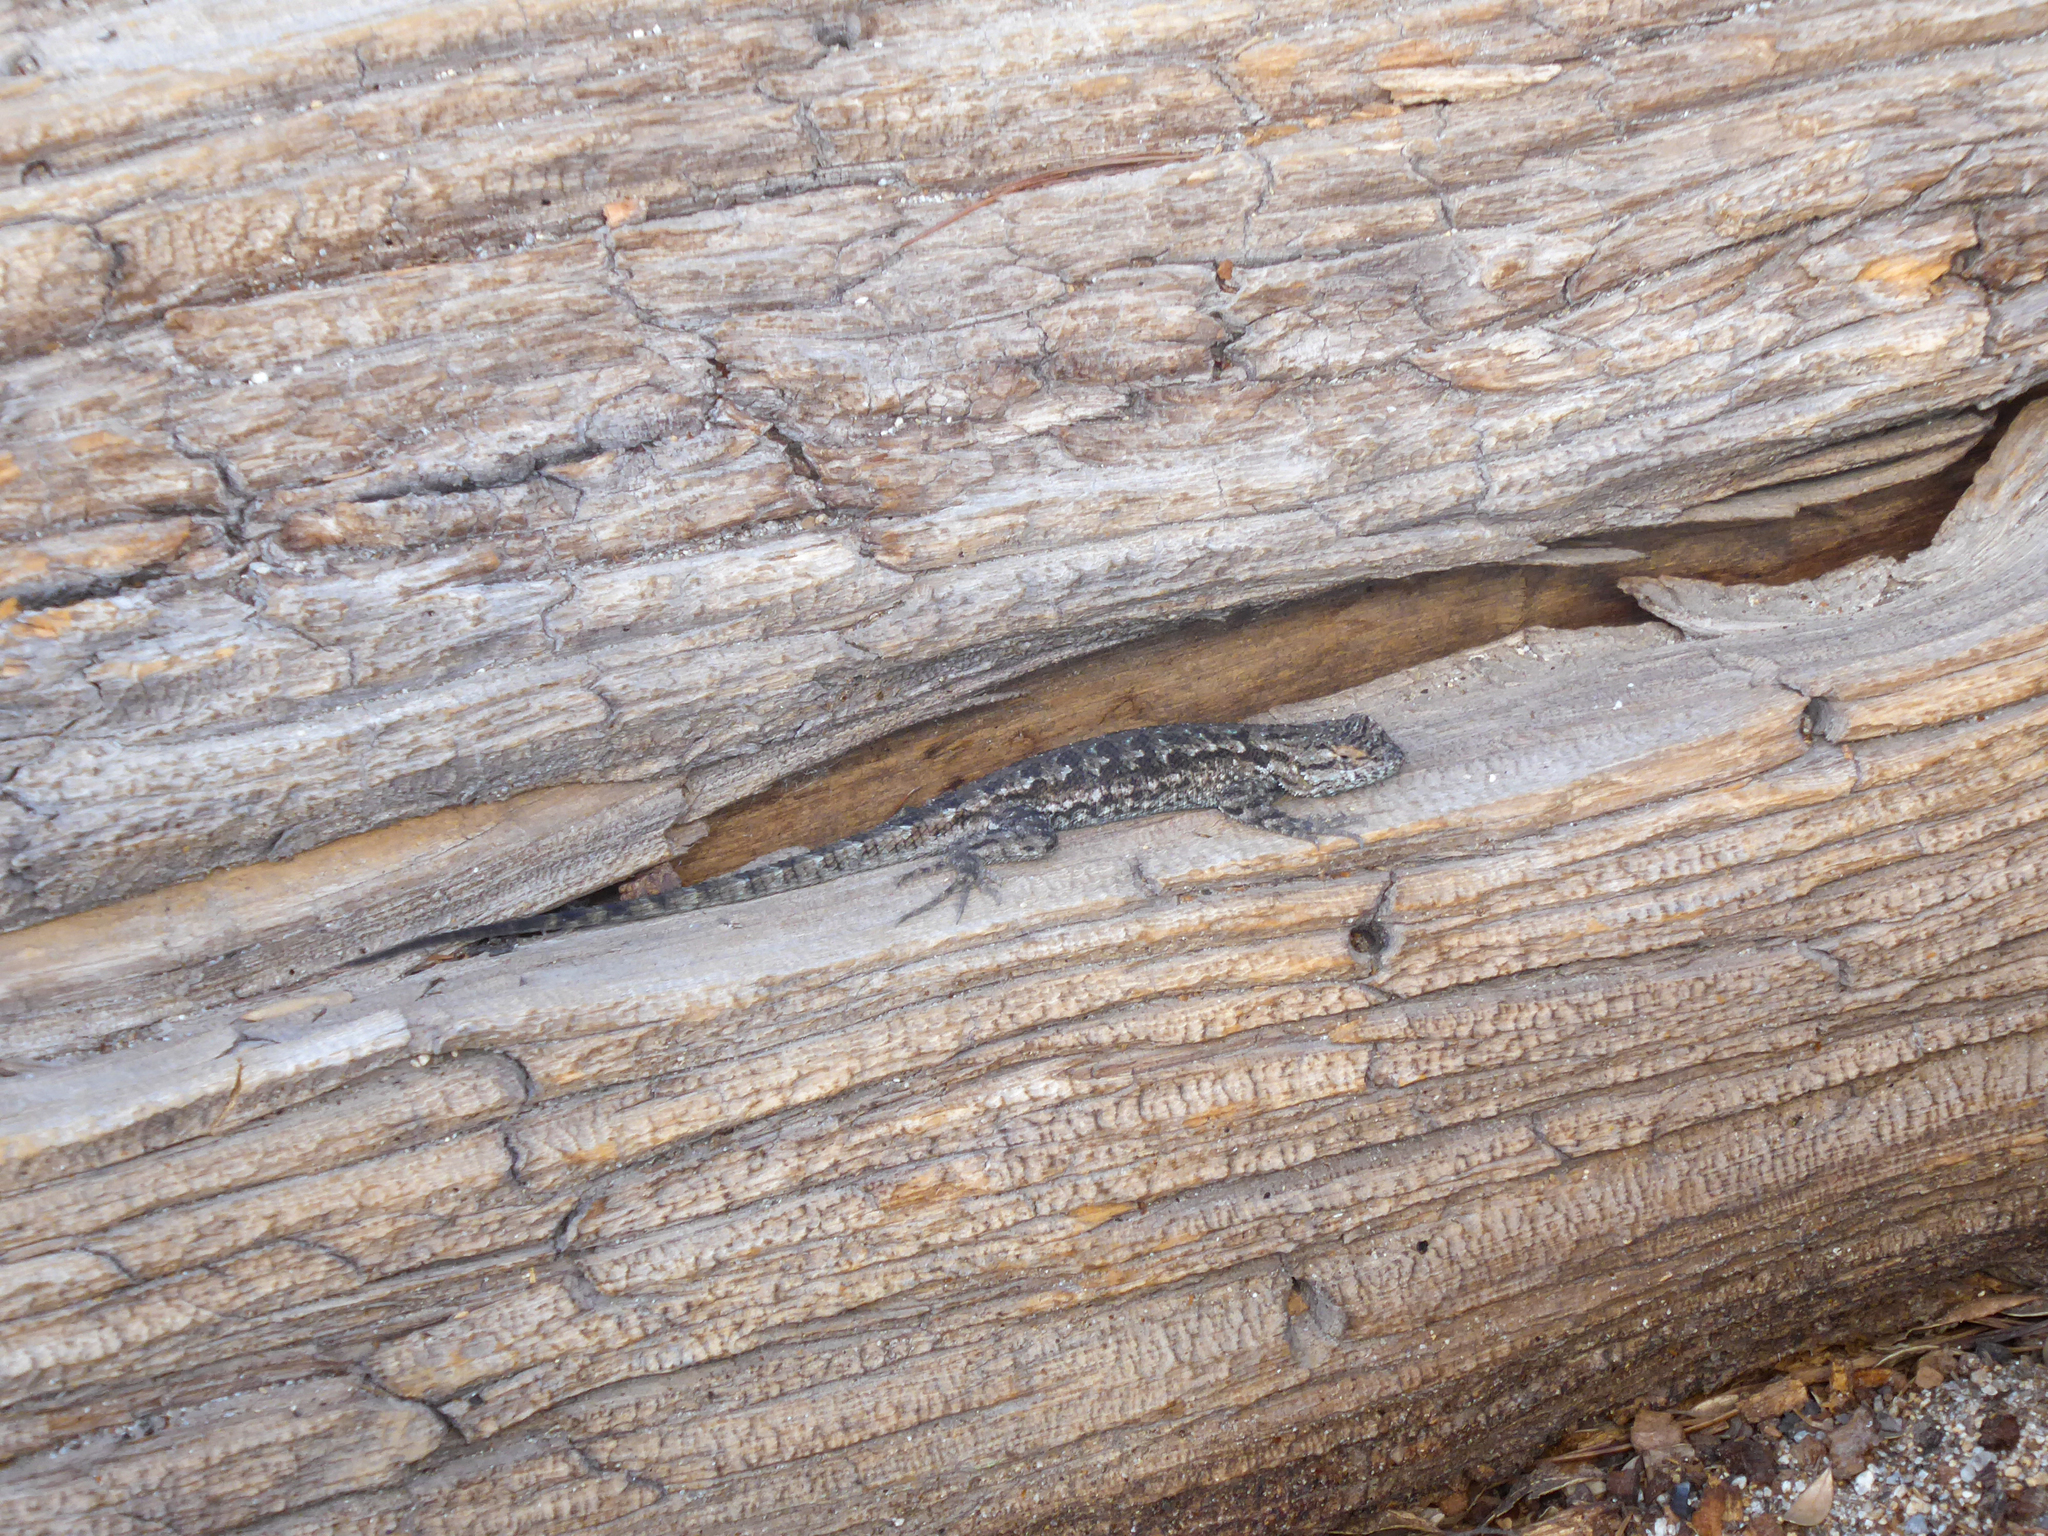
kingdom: Animalia
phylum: Chordata
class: Squamata
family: Phrynosomatidae
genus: Sceloporus
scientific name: Sceloporus occidentalis
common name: Western fence lizard
